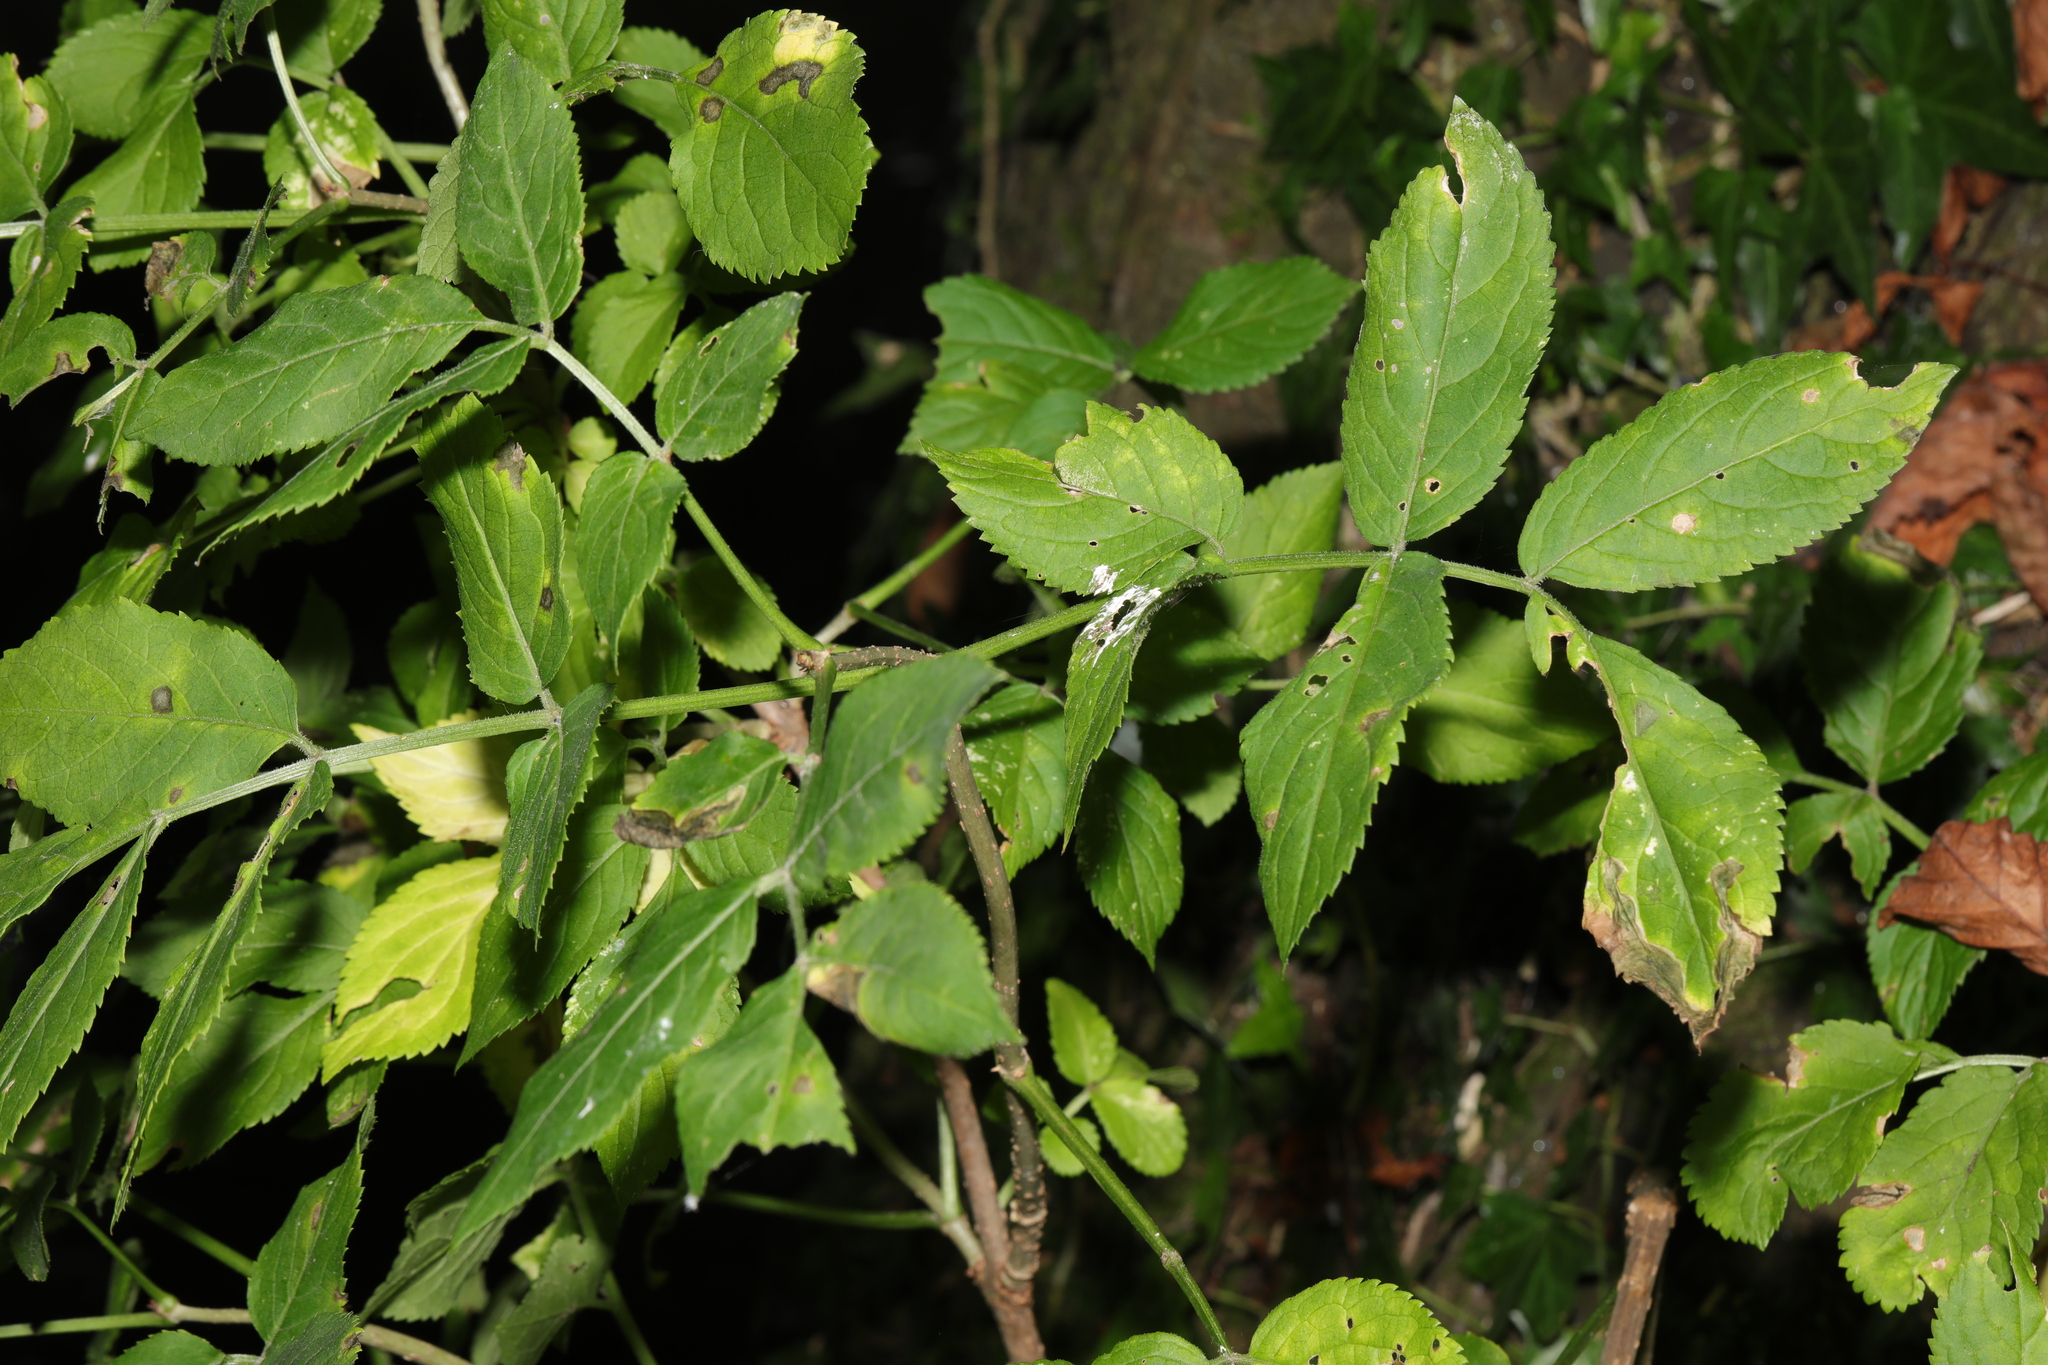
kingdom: Plantae
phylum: Tracheophyta
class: Magnoliopsida
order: Dipsacales
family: Viburnaceae
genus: Sambucus
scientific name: Sambucus nigra
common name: Elder
